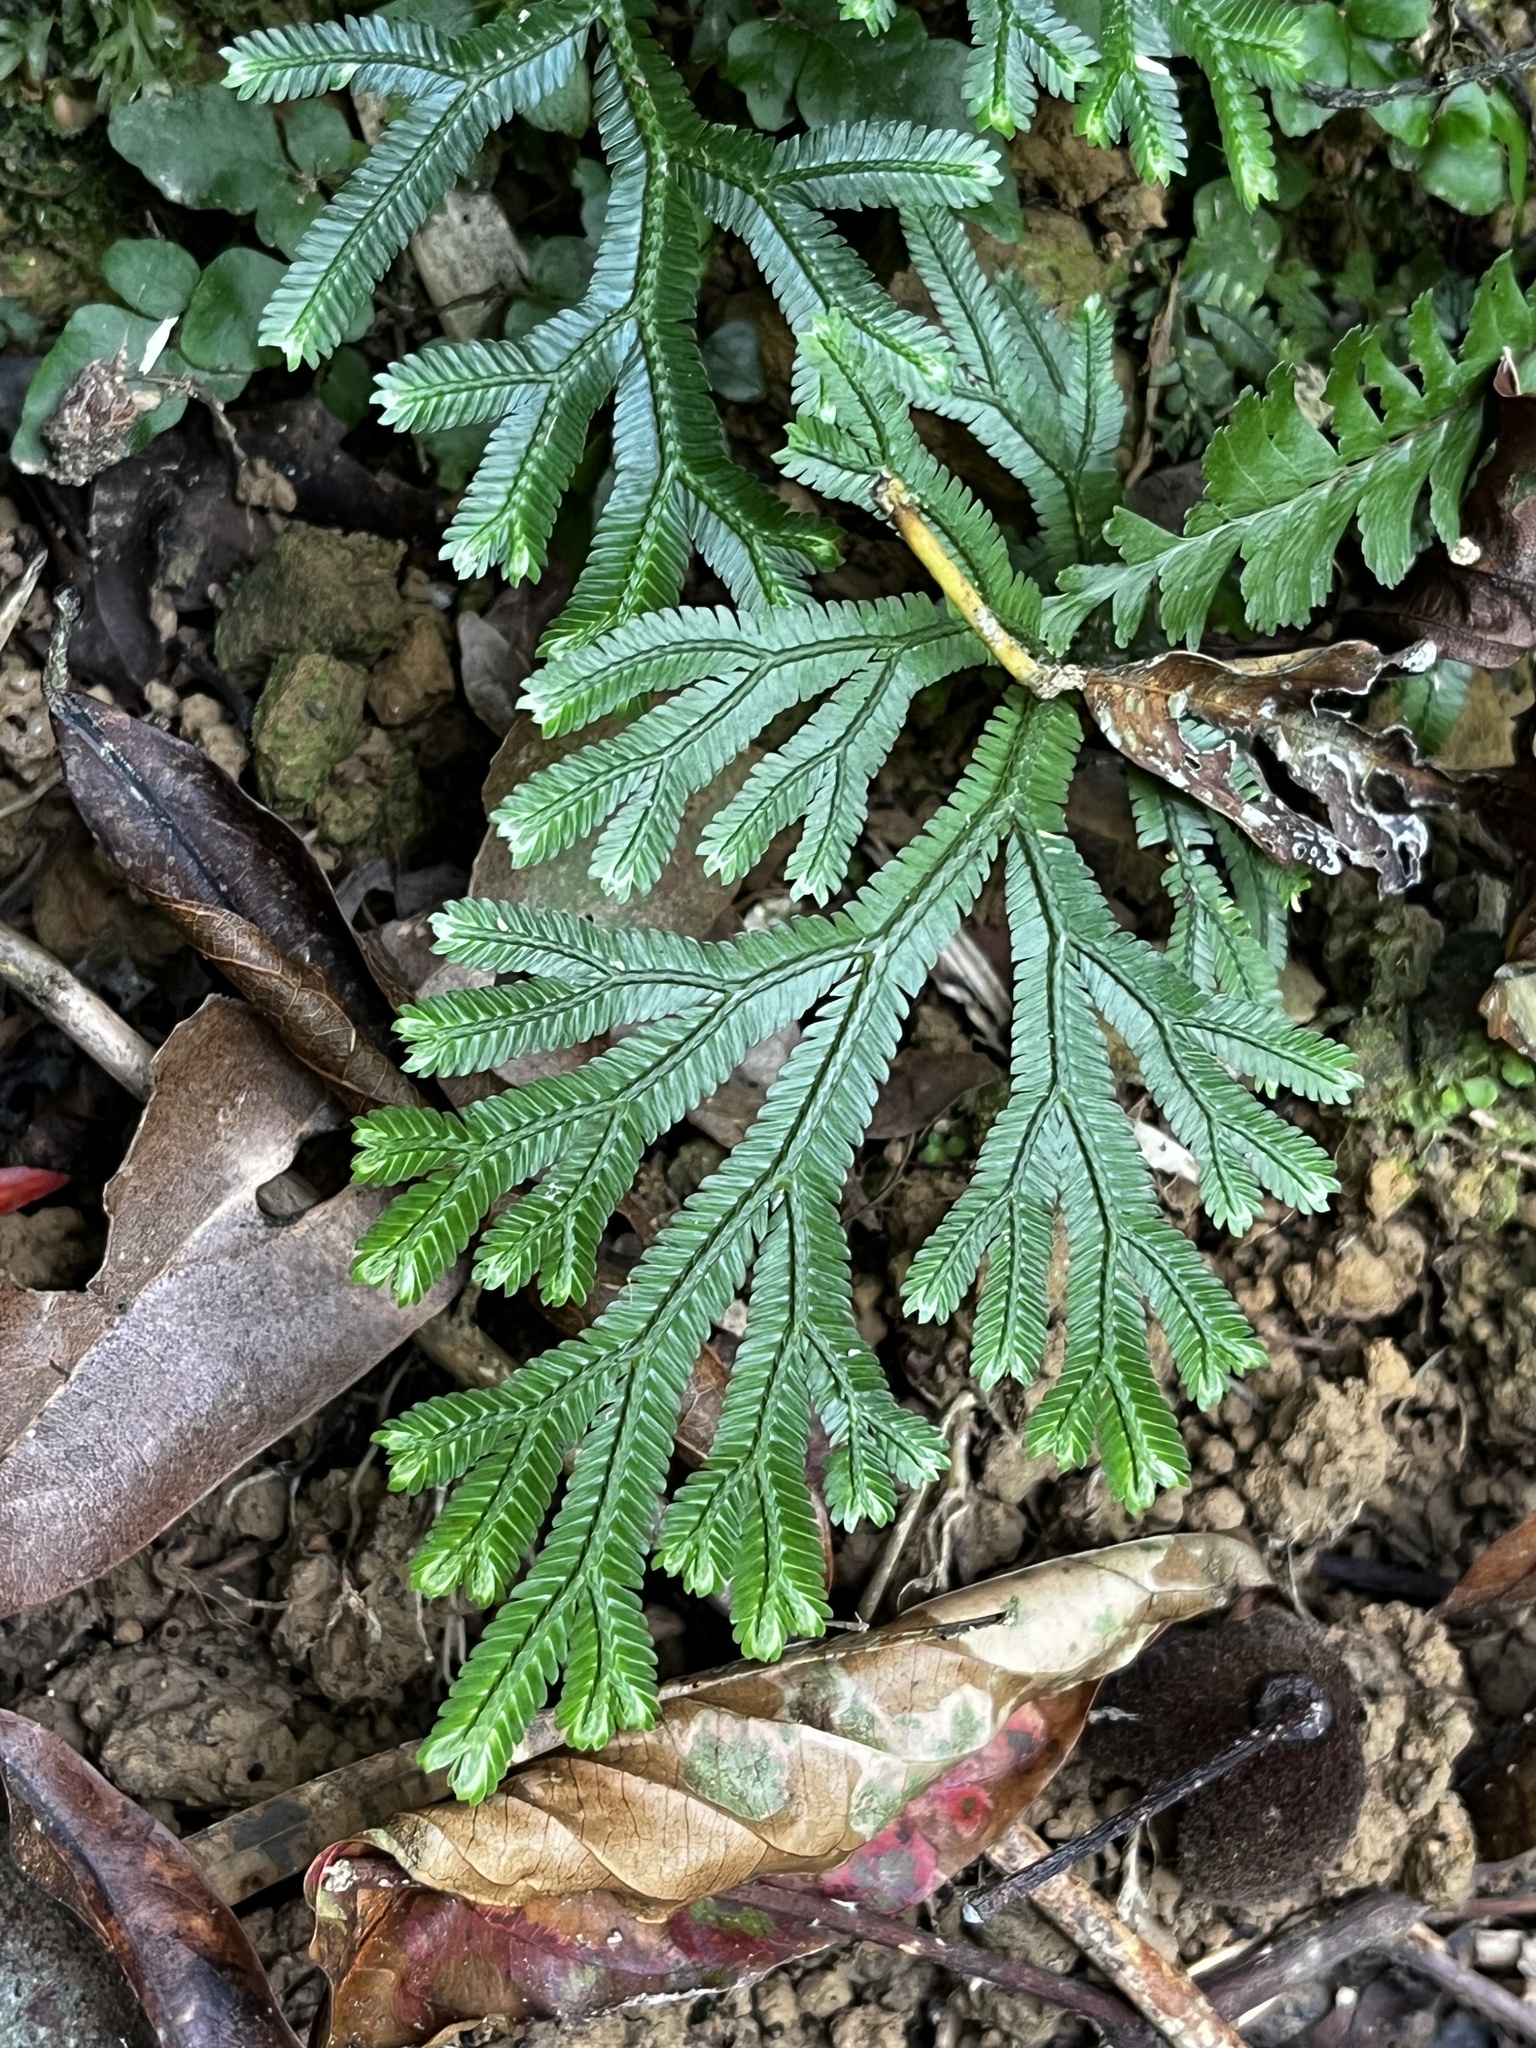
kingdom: Plantae
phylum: Tracheophyta
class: Lycopodiopsida
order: Selaginellales
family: Selaginellaceae
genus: Selaginella
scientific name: Selaginella doederleinii
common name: Greater selaginella
